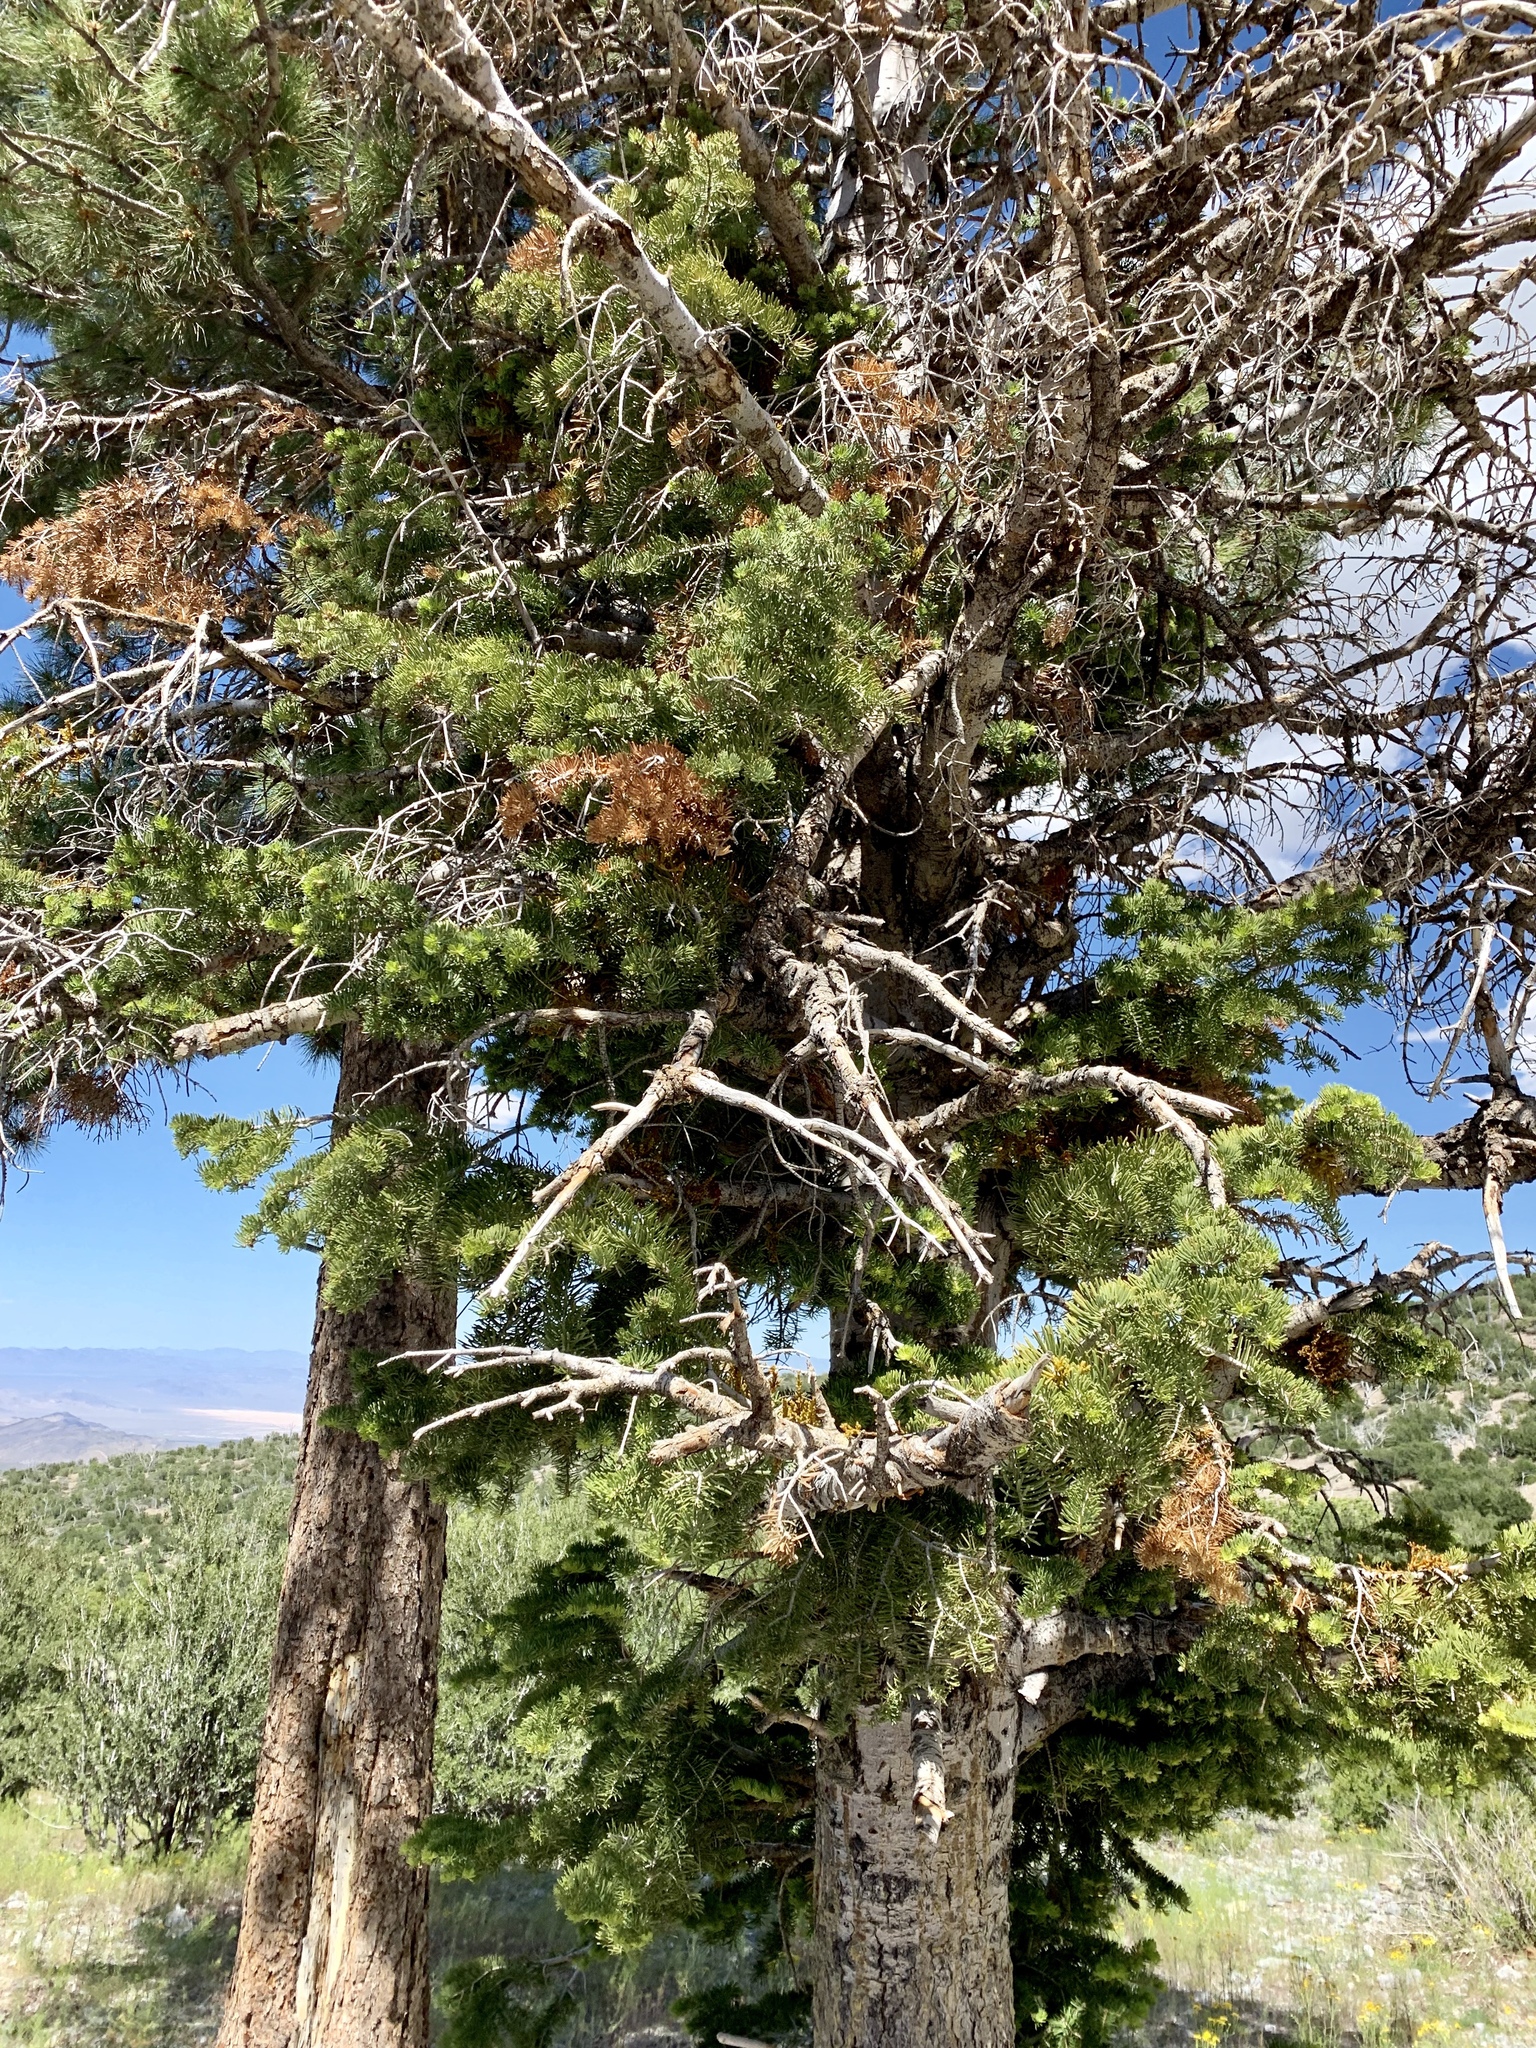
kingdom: Plantae
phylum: Tracheophyta
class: Pinopsida
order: Pinales
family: Pinaceae
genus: Abies
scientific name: Abies concolor
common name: Colorado fir
